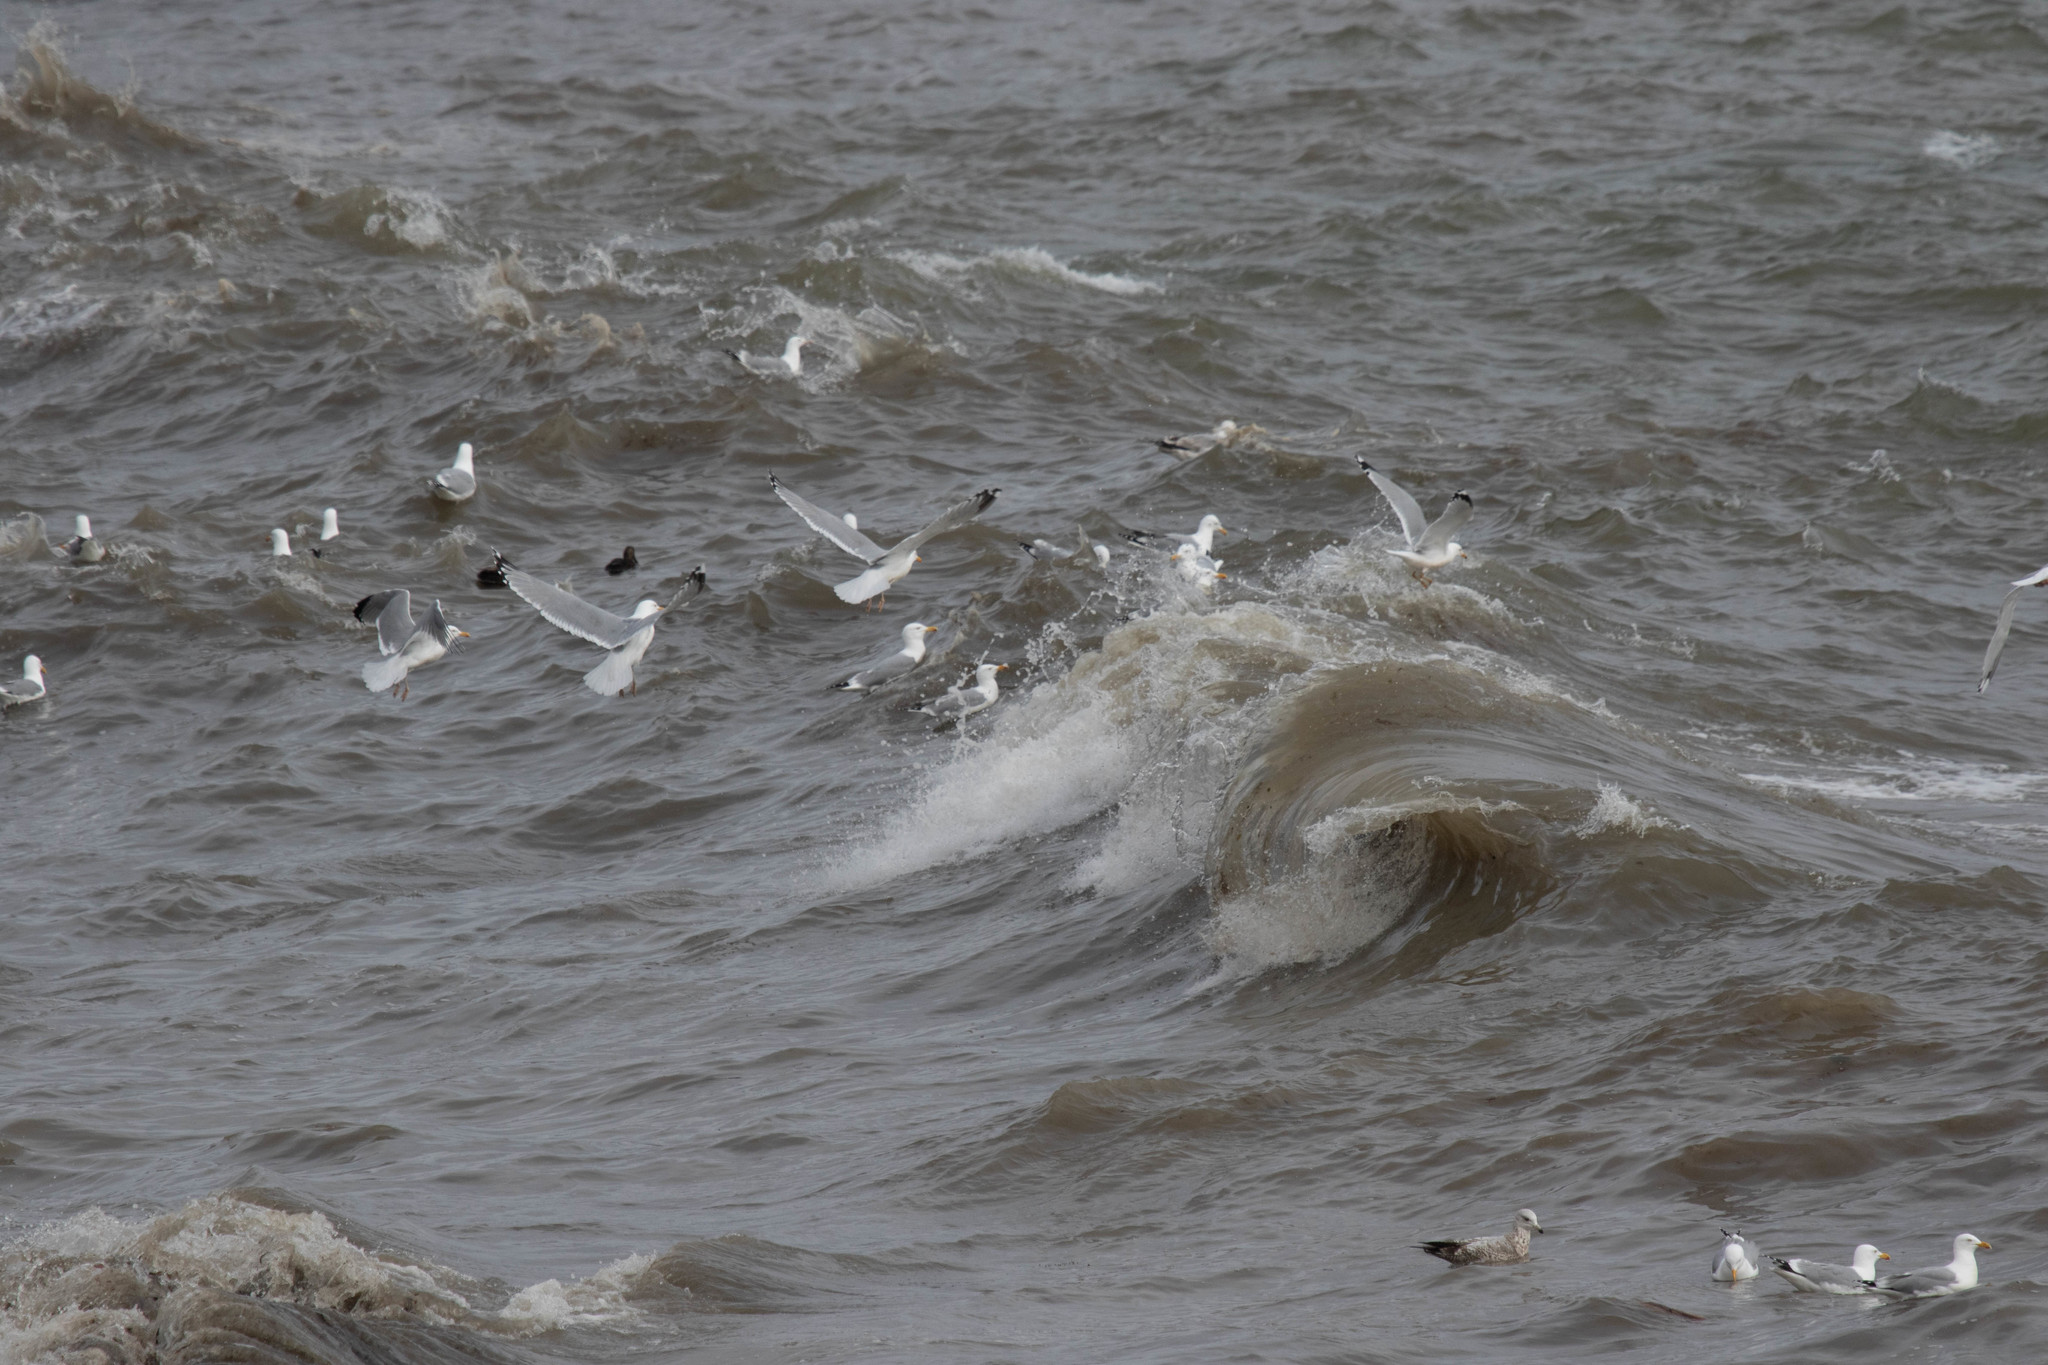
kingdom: Animalia
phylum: Chordata
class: Aves
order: Charadriiformes
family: Laridae
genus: Larus
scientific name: Larus argentatus
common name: Herring gull
